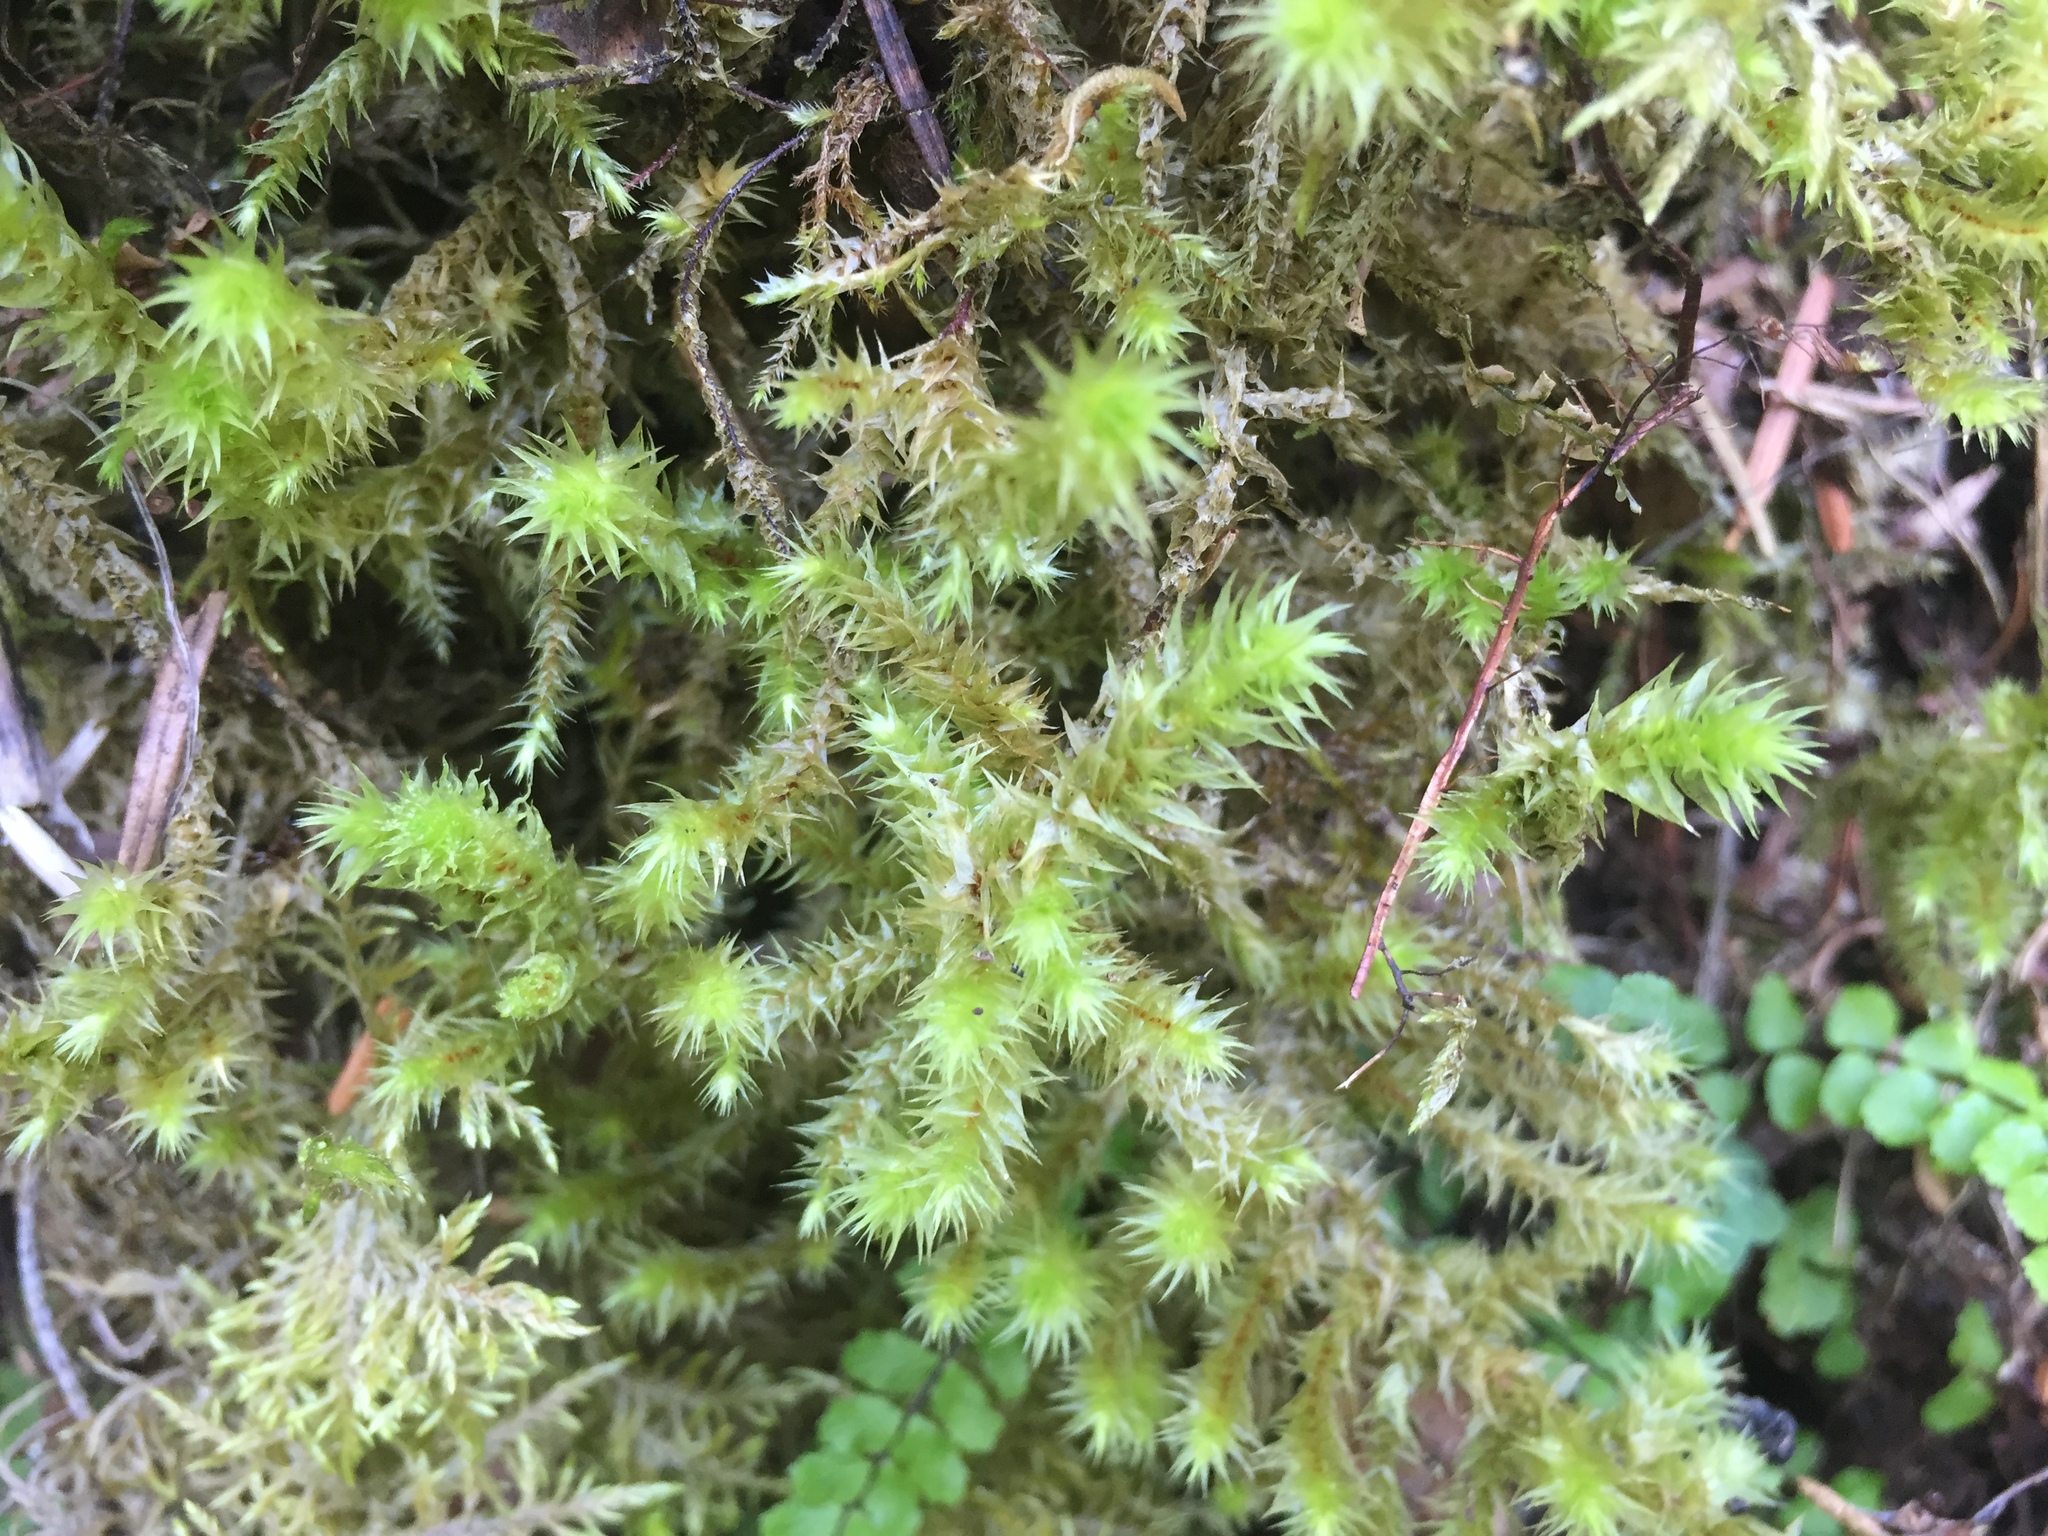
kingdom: Plantae
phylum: Bryophyta
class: Bryopsida
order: Hypnales
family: Hylocomiaceae
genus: Hylocomiadelphus
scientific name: Hylocomiadelphus triquetrus
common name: Rough goose neck moss
